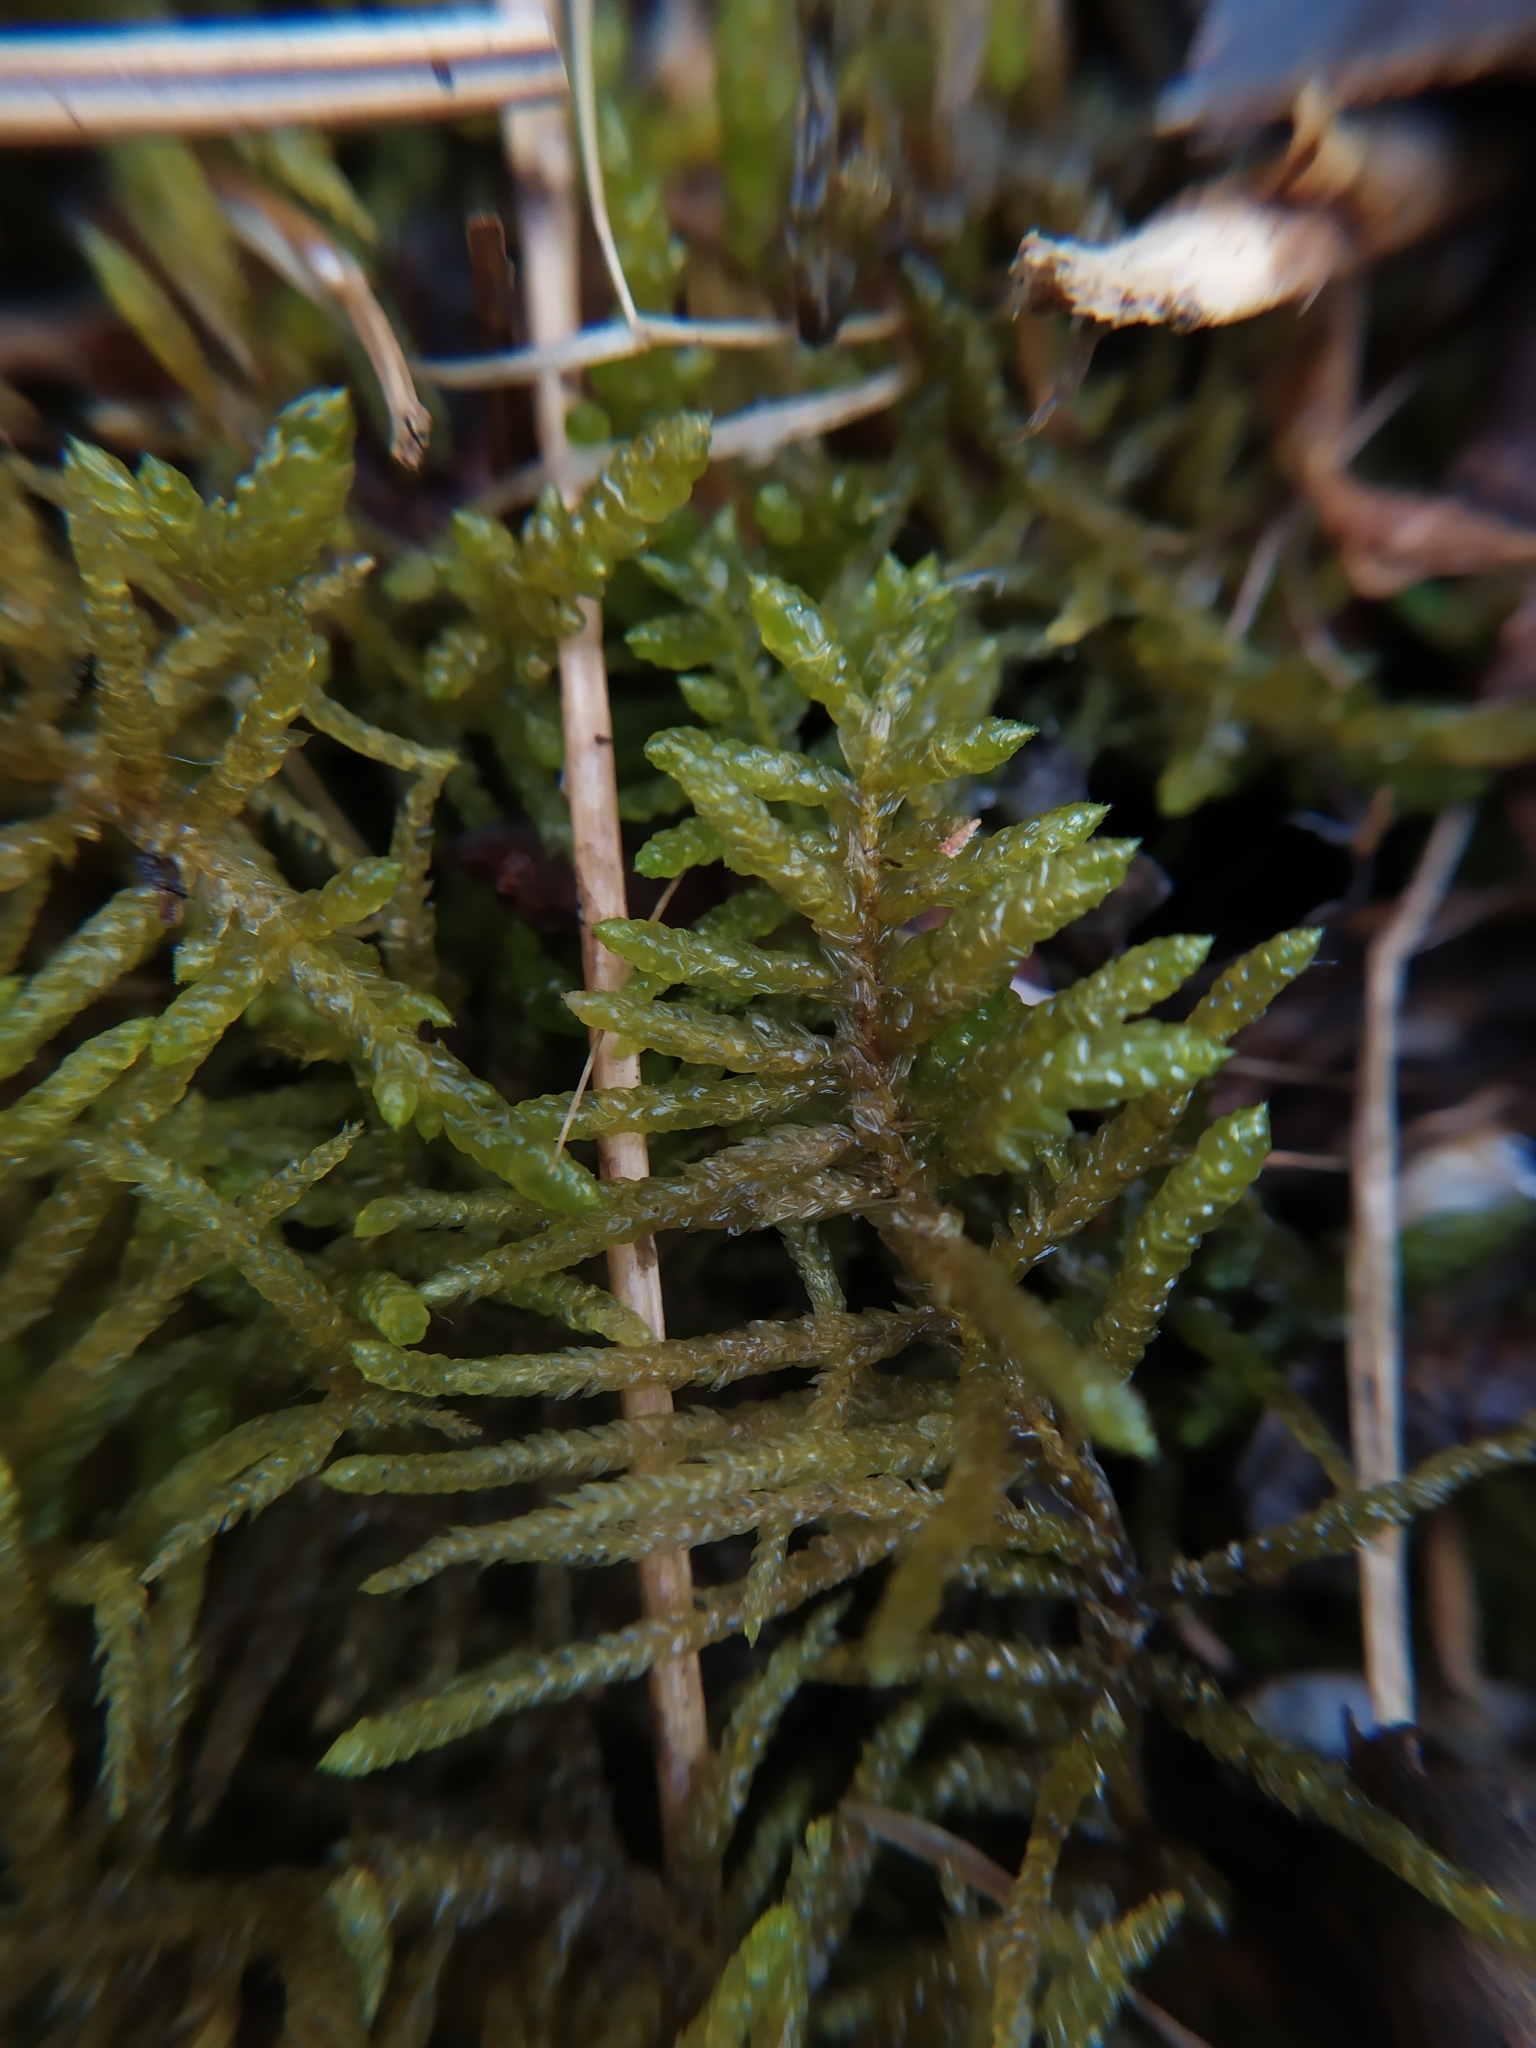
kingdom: Plantae
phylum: Bryophyta
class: Bryopsida
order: Hypnales
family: Brachytheciaceae
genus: Pseudoscleropodium
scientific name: Pseudoscleropodium purum
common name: Neat feather-moss
